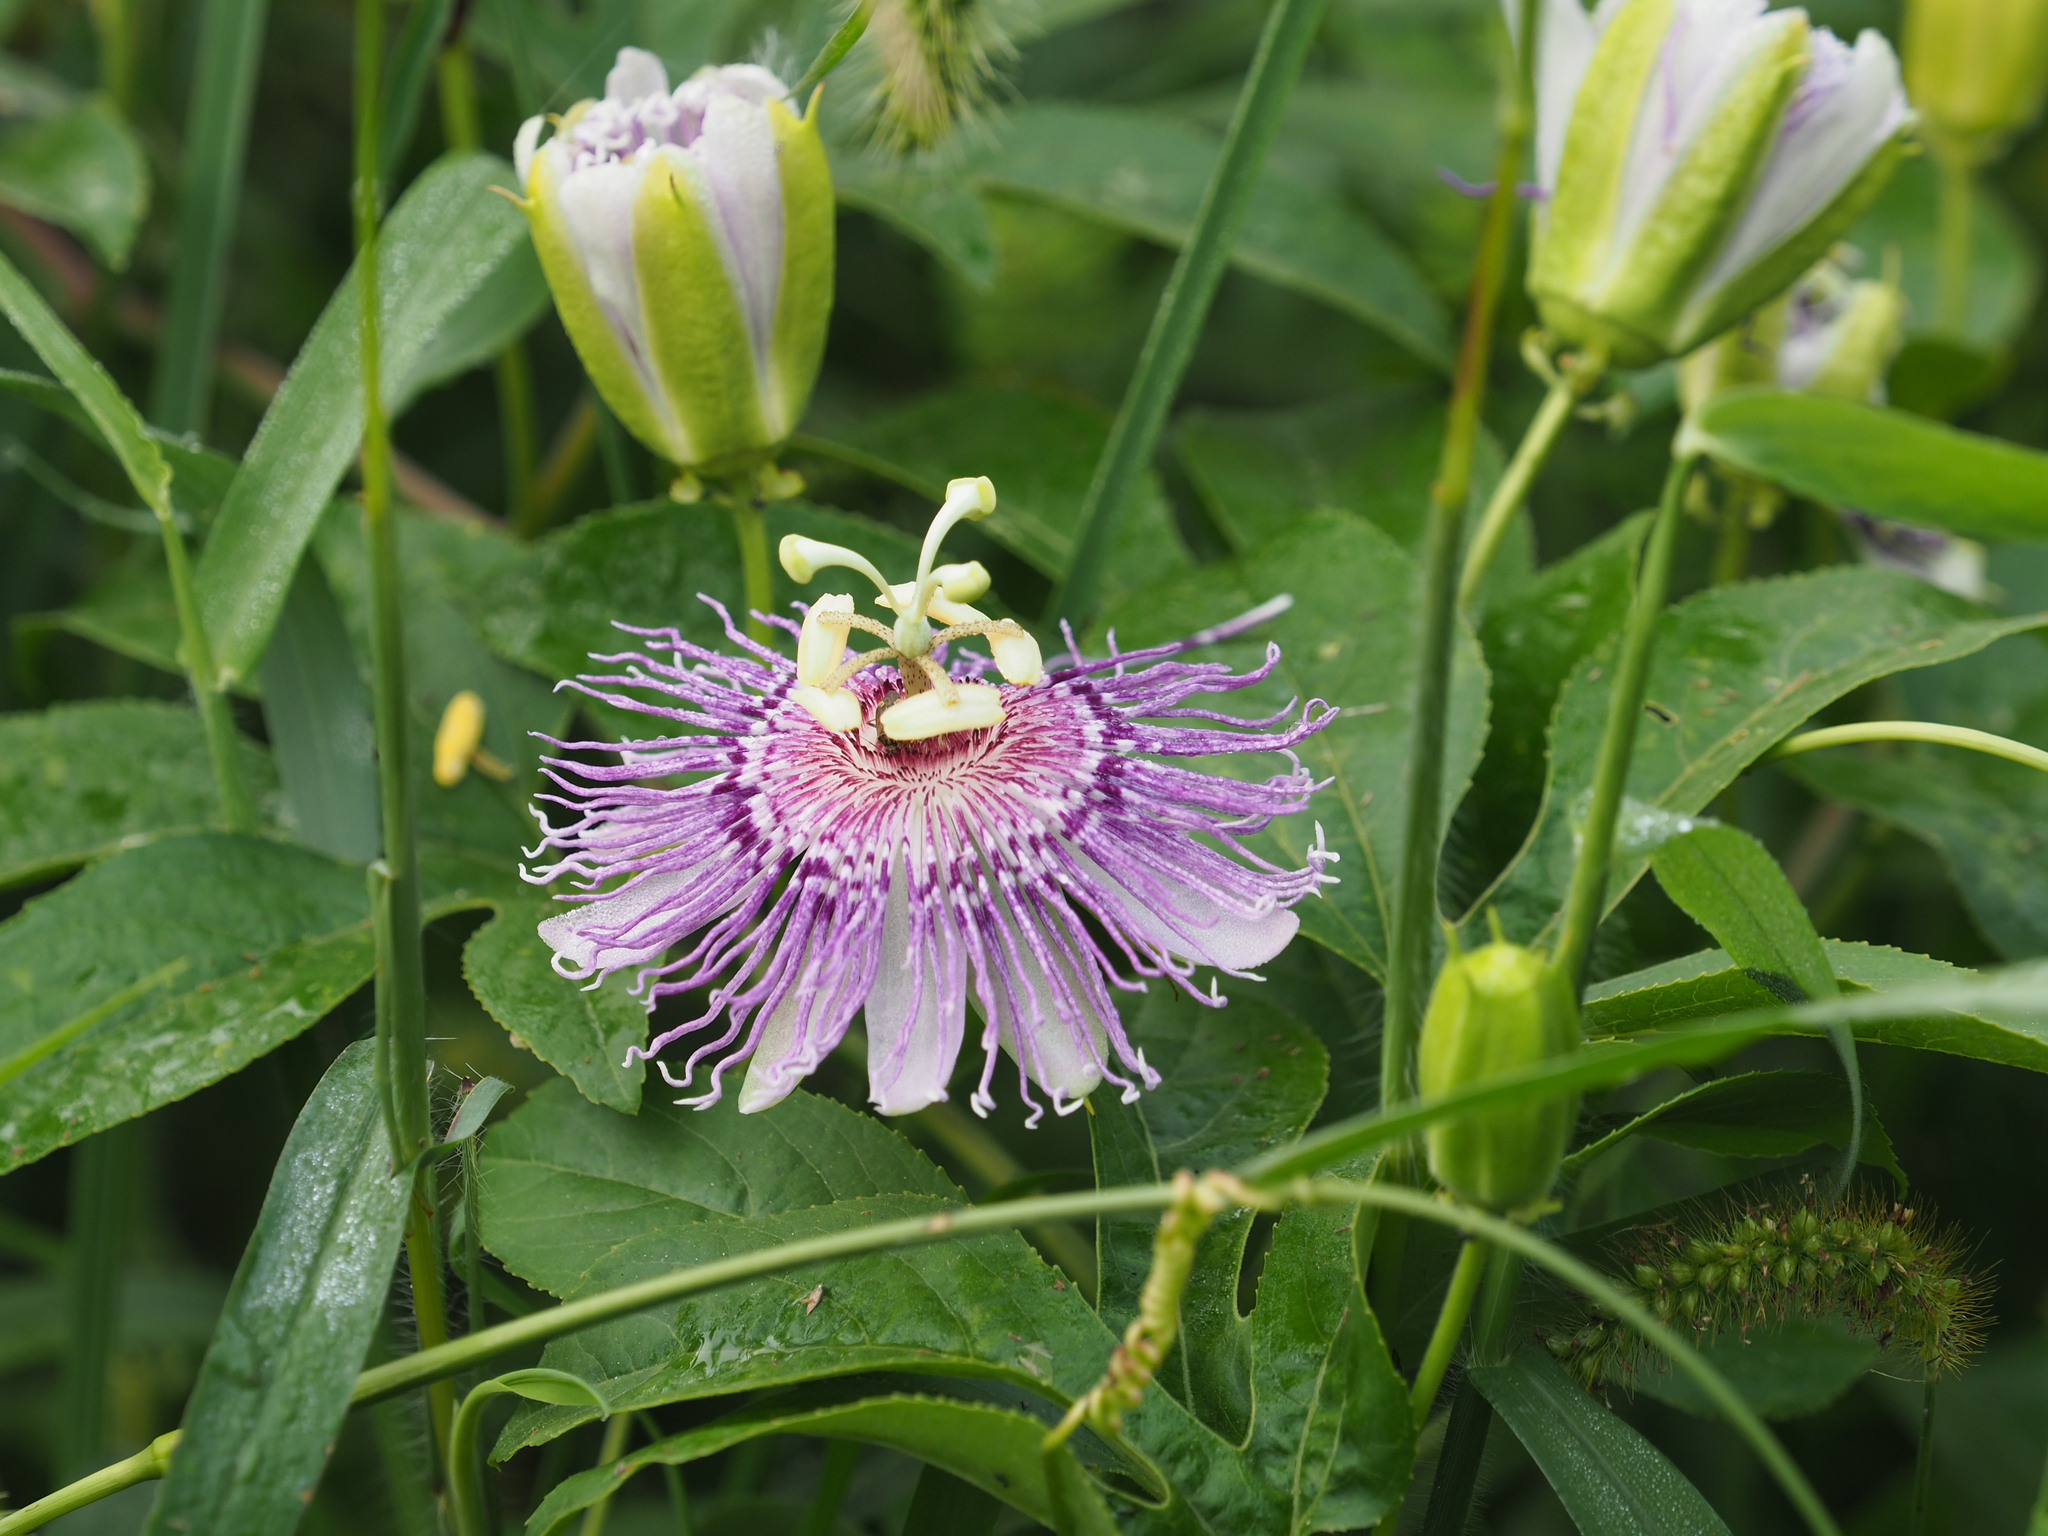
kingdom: Plantae
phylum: Tracheophyta
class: Magnoliopsida
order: Malpighiales
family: Passifloraceae
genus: Passiflora
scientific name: Passiflora incarnata
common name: Apricot-vine
